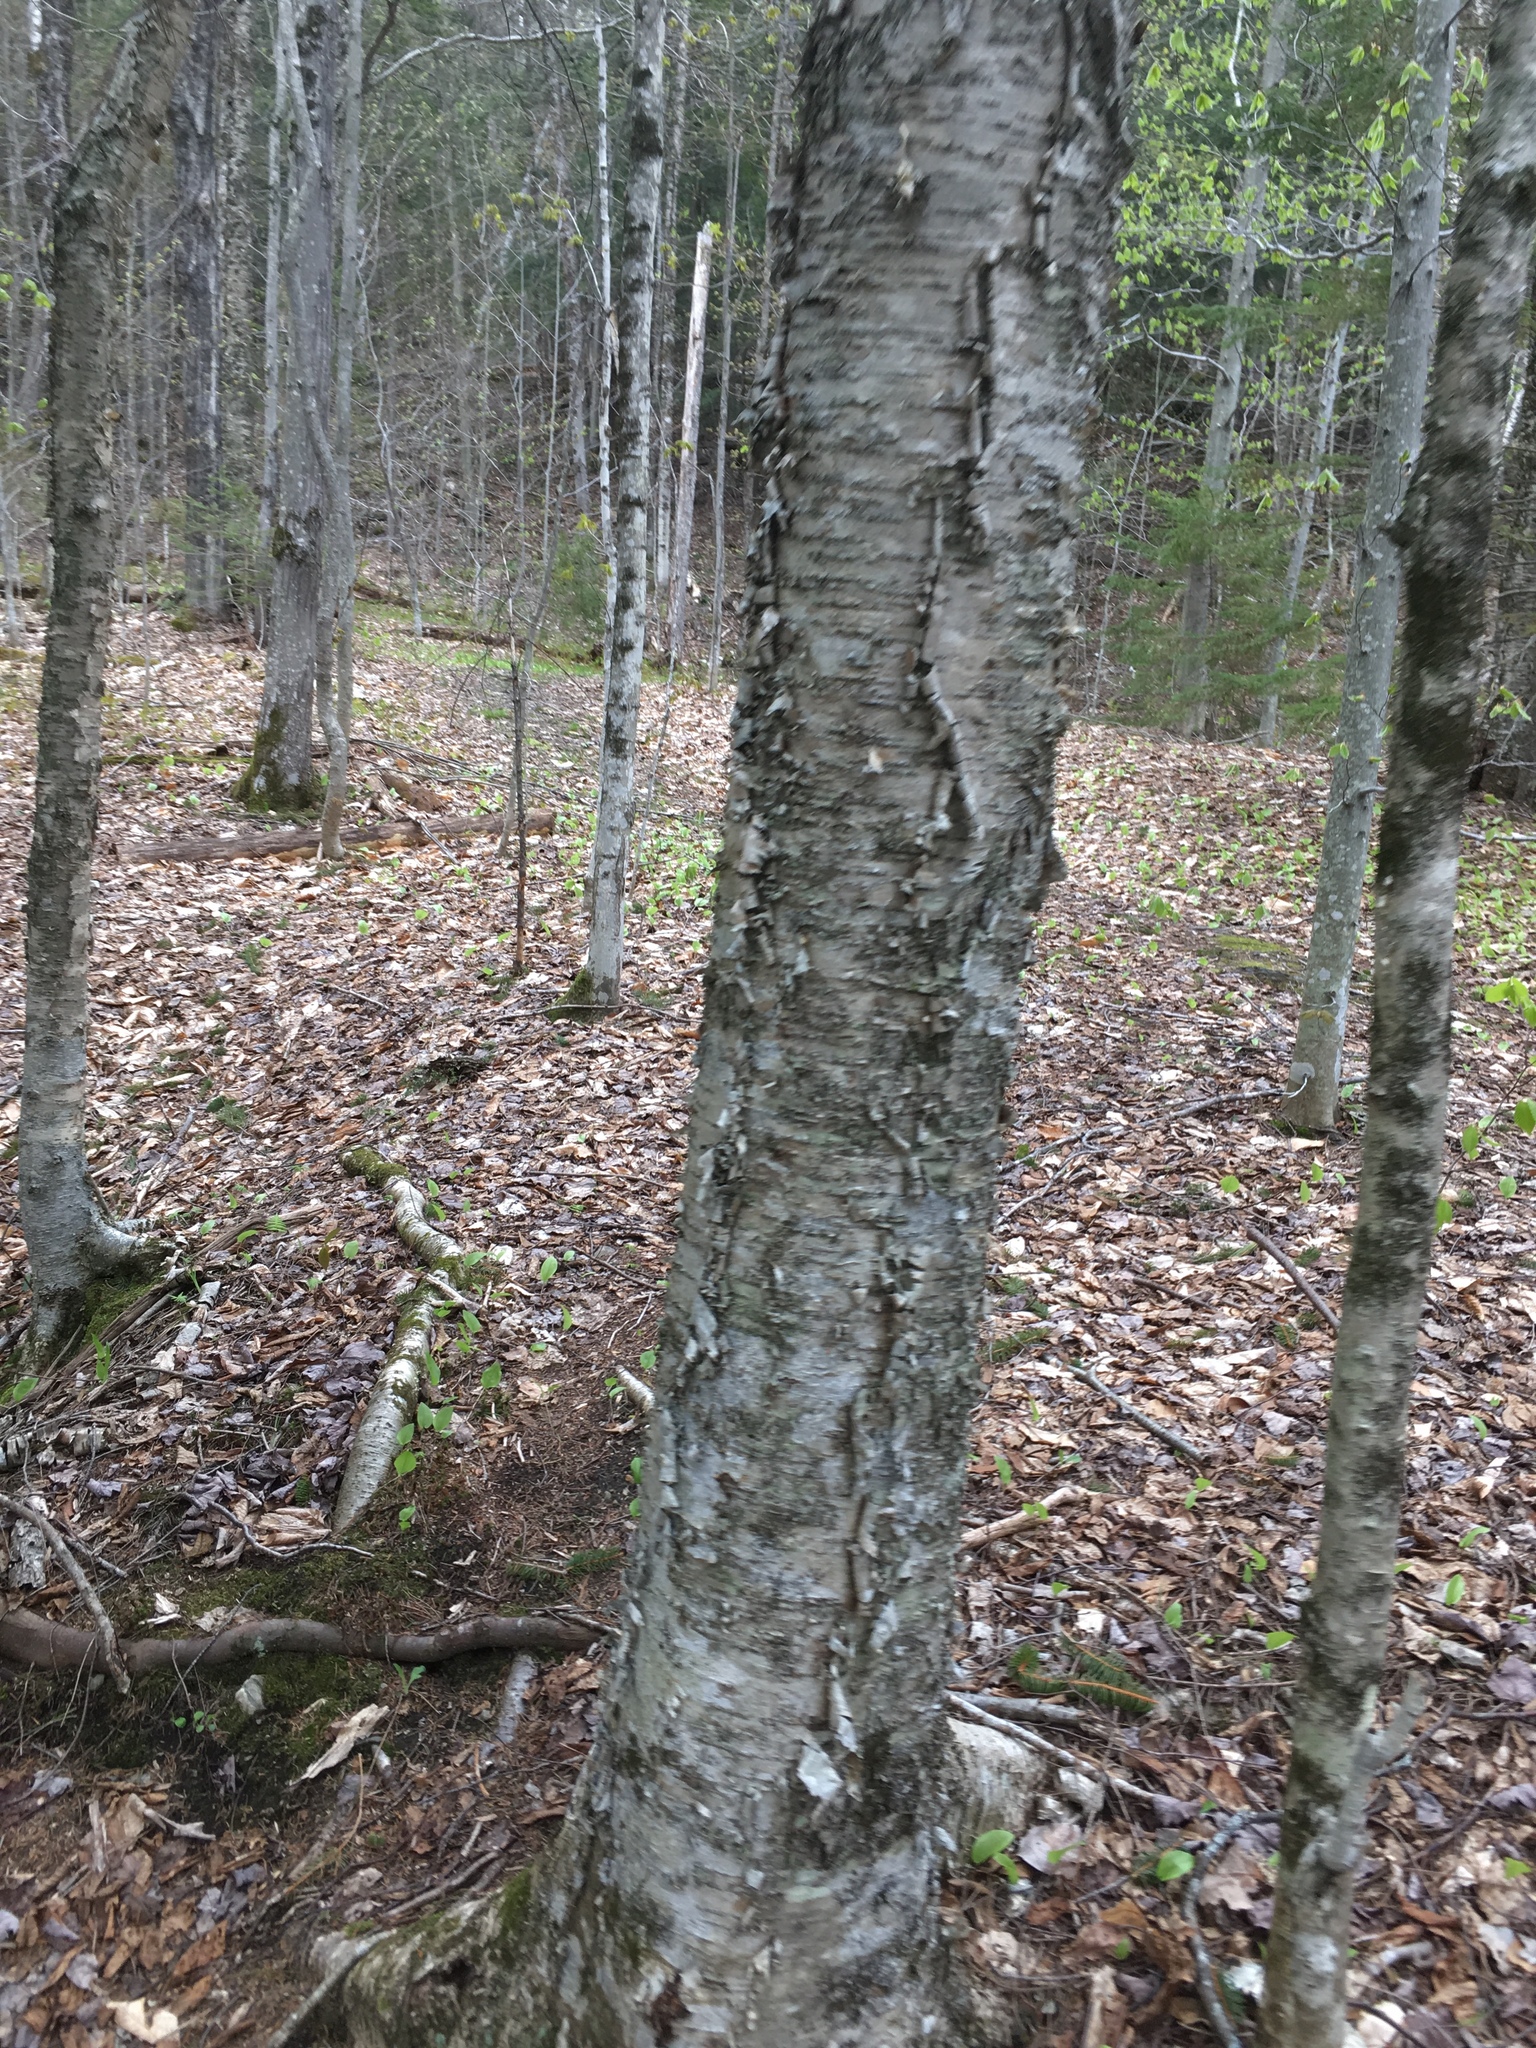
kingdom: Plantae
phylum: Tracheophyta
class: Magnoliopsida
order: Fagales
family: Betulaceae
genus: Betula
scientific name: Betula alleghaniensis
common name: Yellow birch
